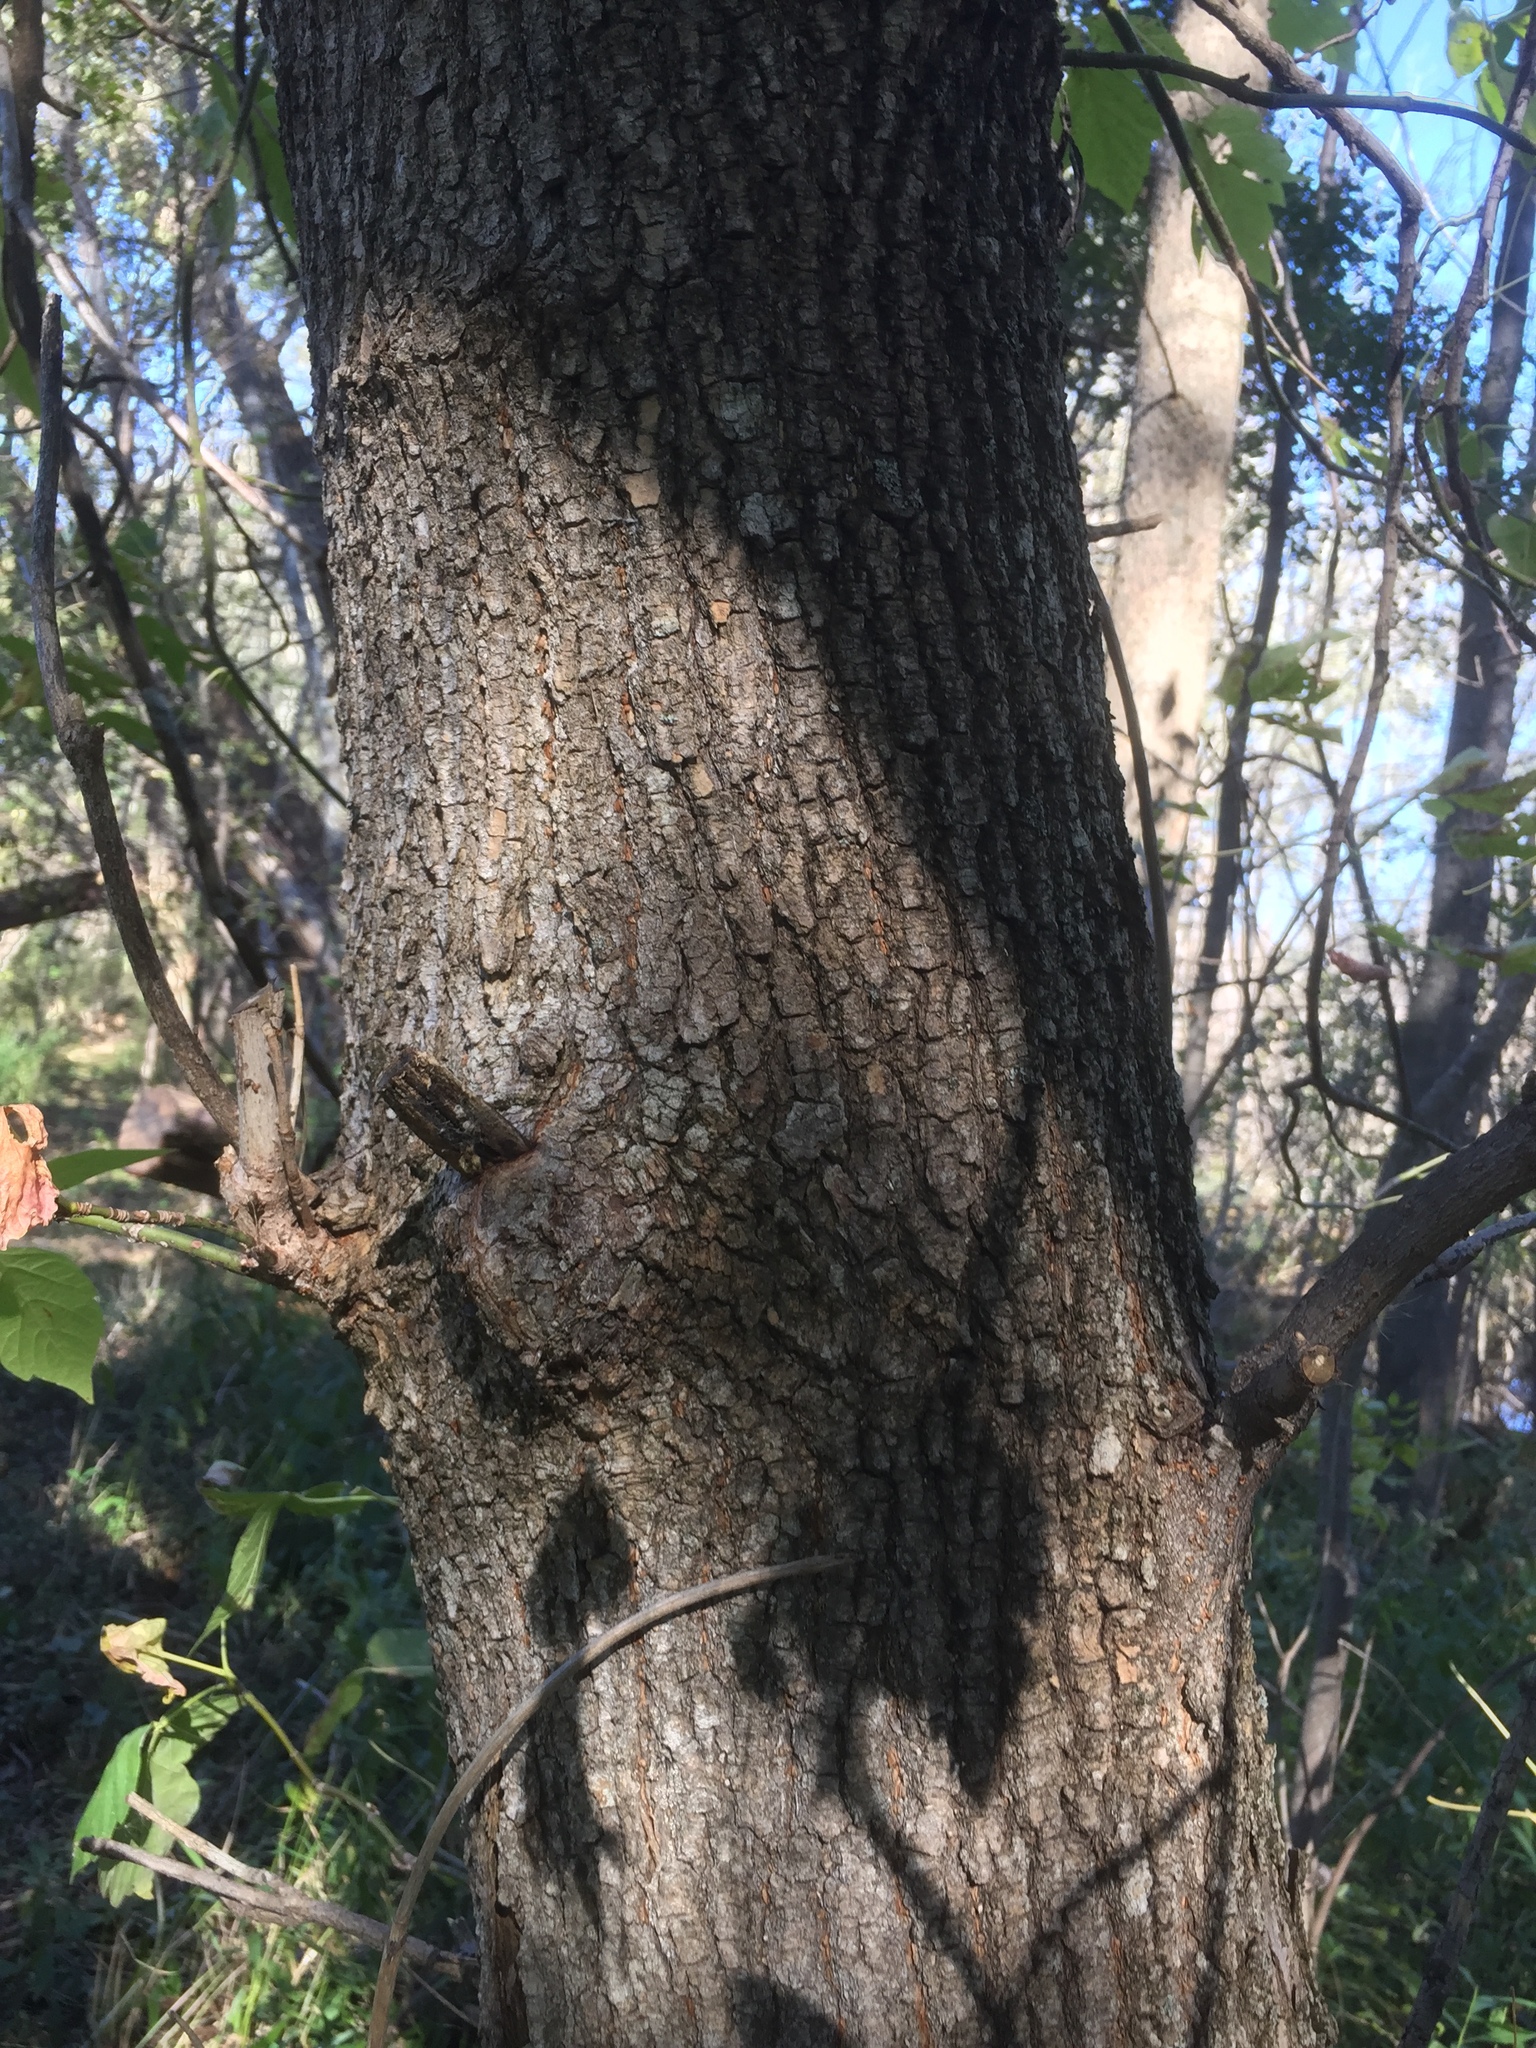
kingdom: Plantae
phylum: Tracheophyta
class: Magnoliopsida
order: Sapindales
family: Sapindaceae
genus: Acer
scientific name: Acer negundo
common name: Ashleaf maple
